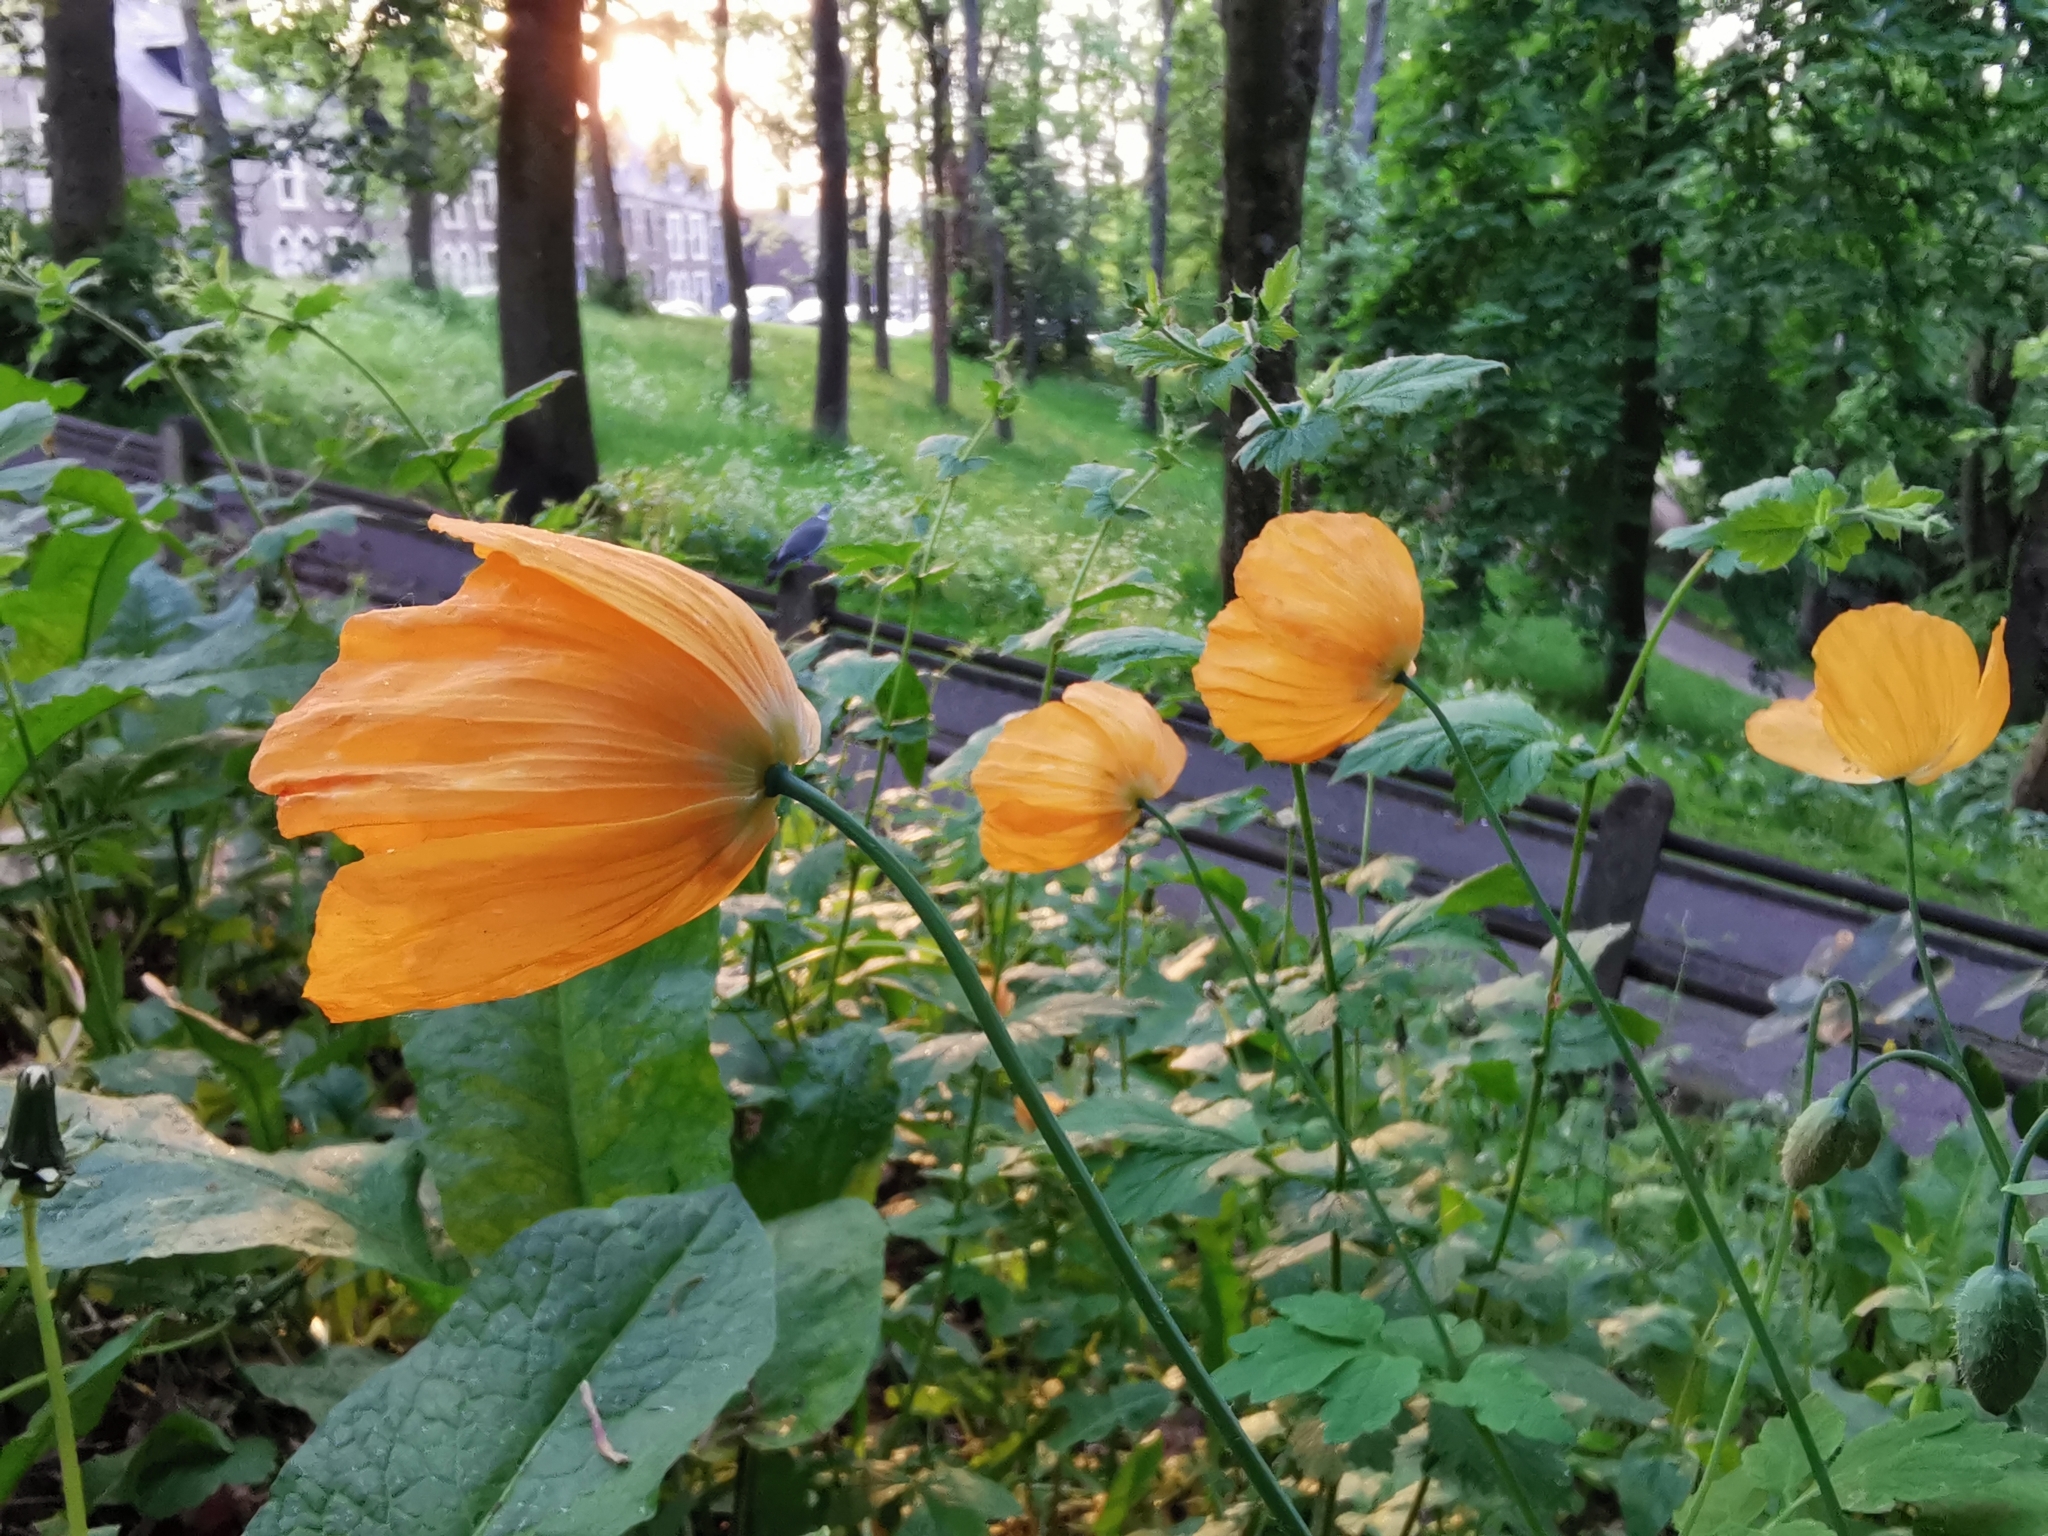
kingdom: Plantae
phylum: Tracheophyta
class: Magnoliopsida
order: Ranunculales
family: Papaveraceae
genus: Papaver
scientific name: Papaver cambricum
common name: Poppy
